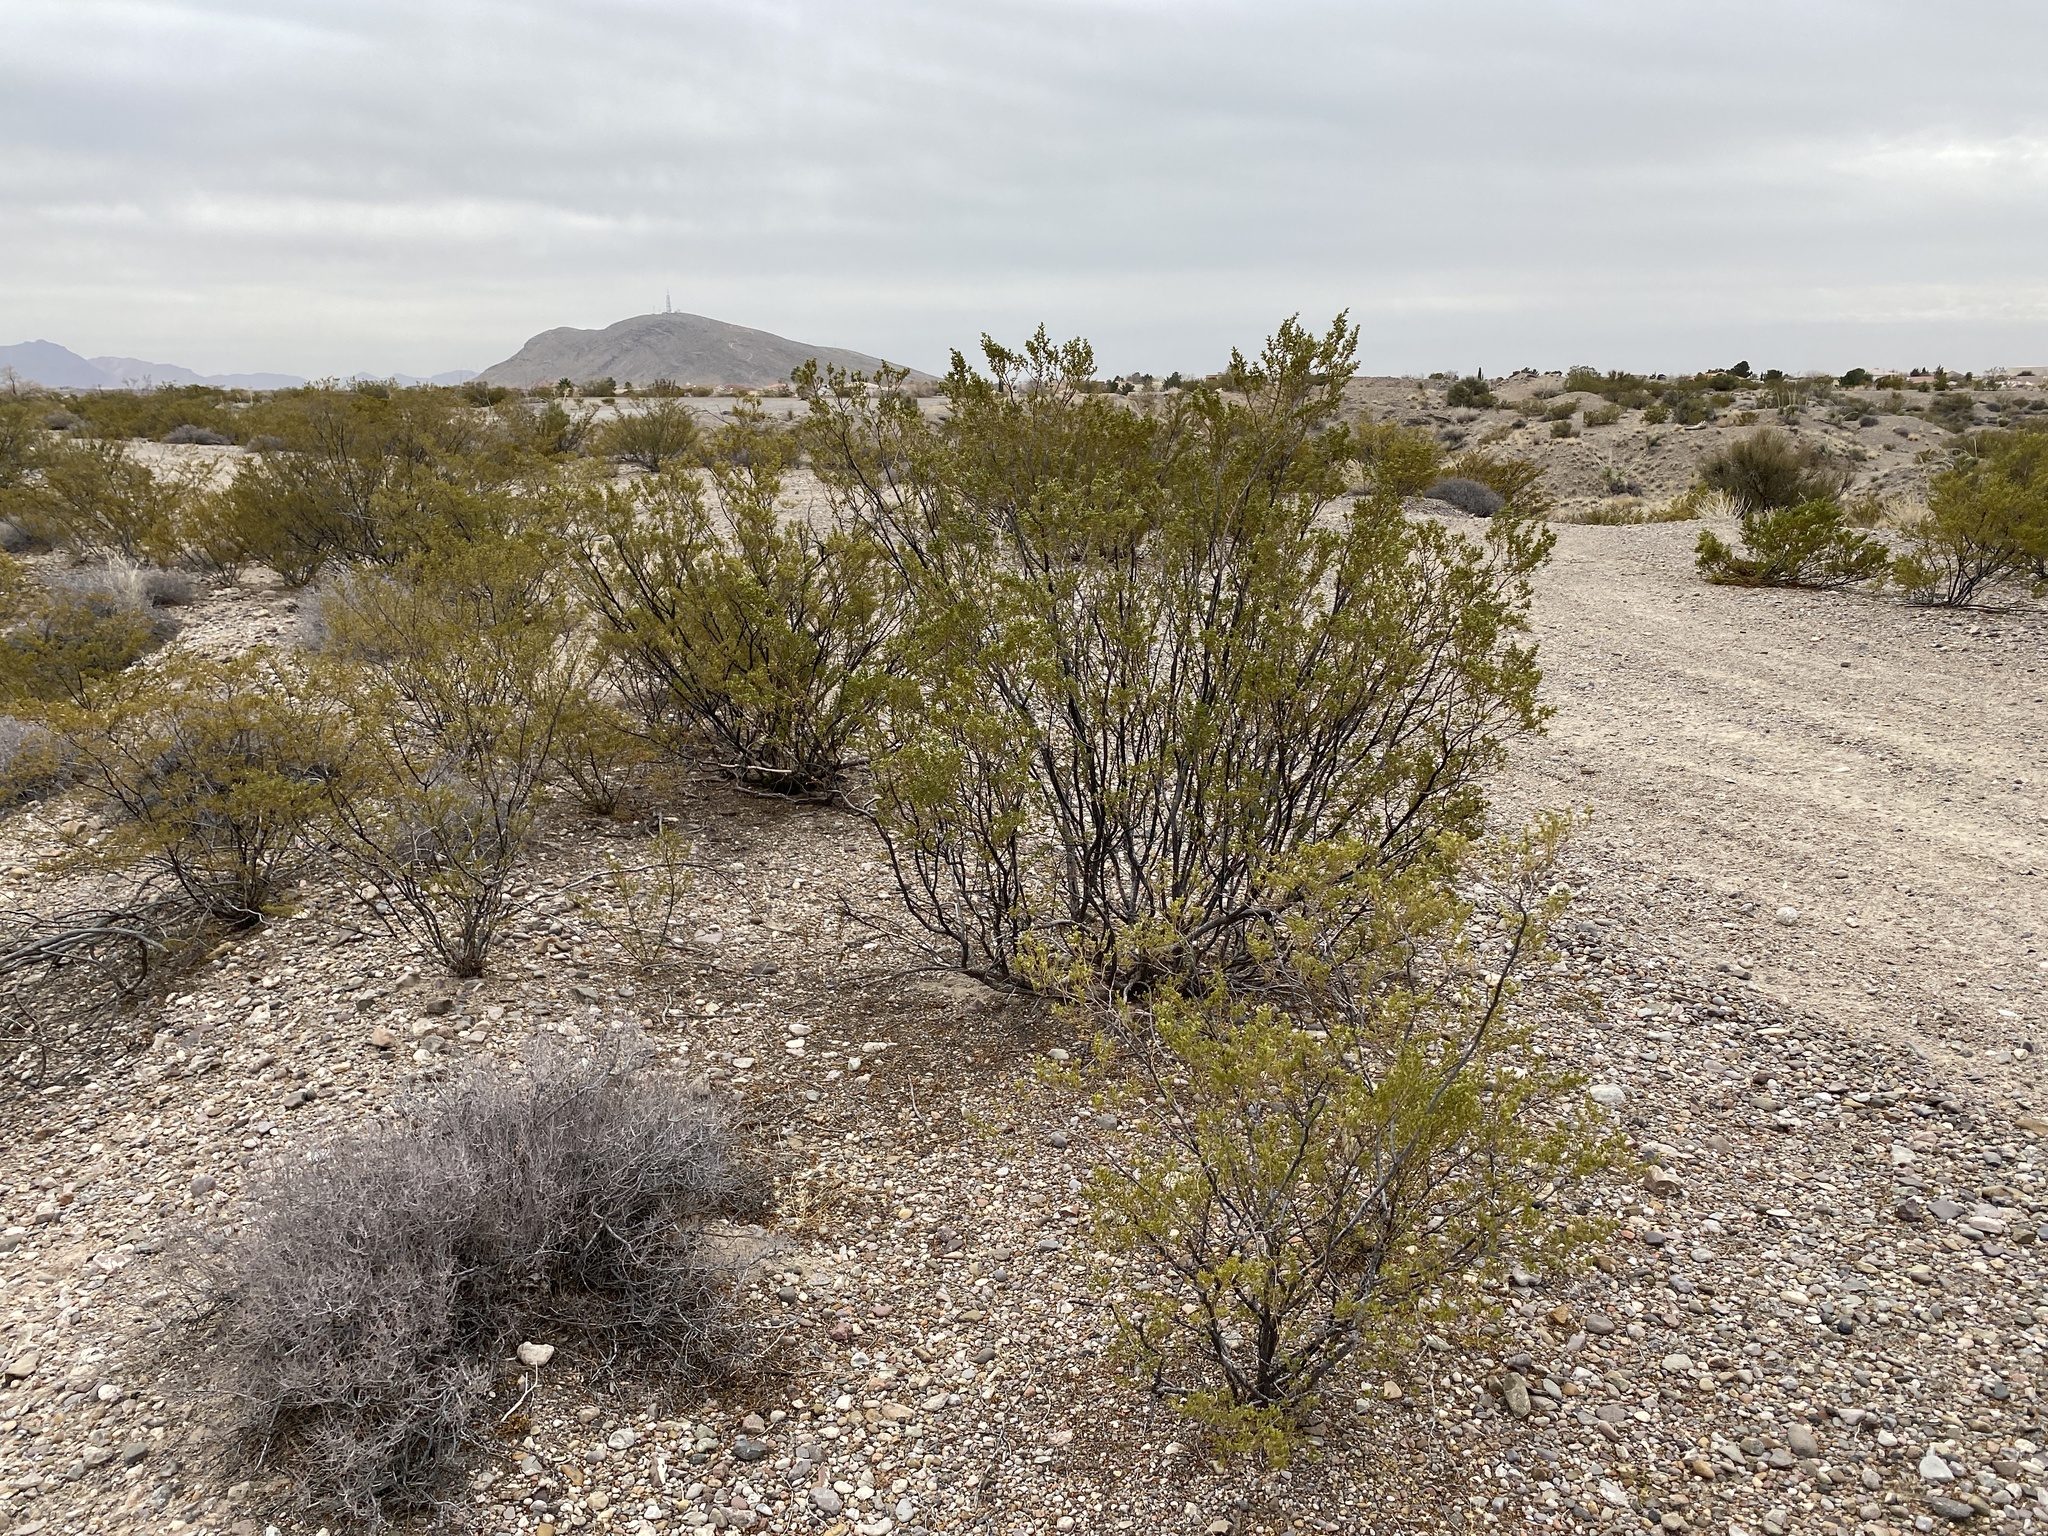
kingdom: Plantae
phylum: Tracheophyta
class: Magnoliopsida
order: Zygophyllales
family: Zygophyllaceae
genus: Larrea
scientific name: Larrea tridentata
